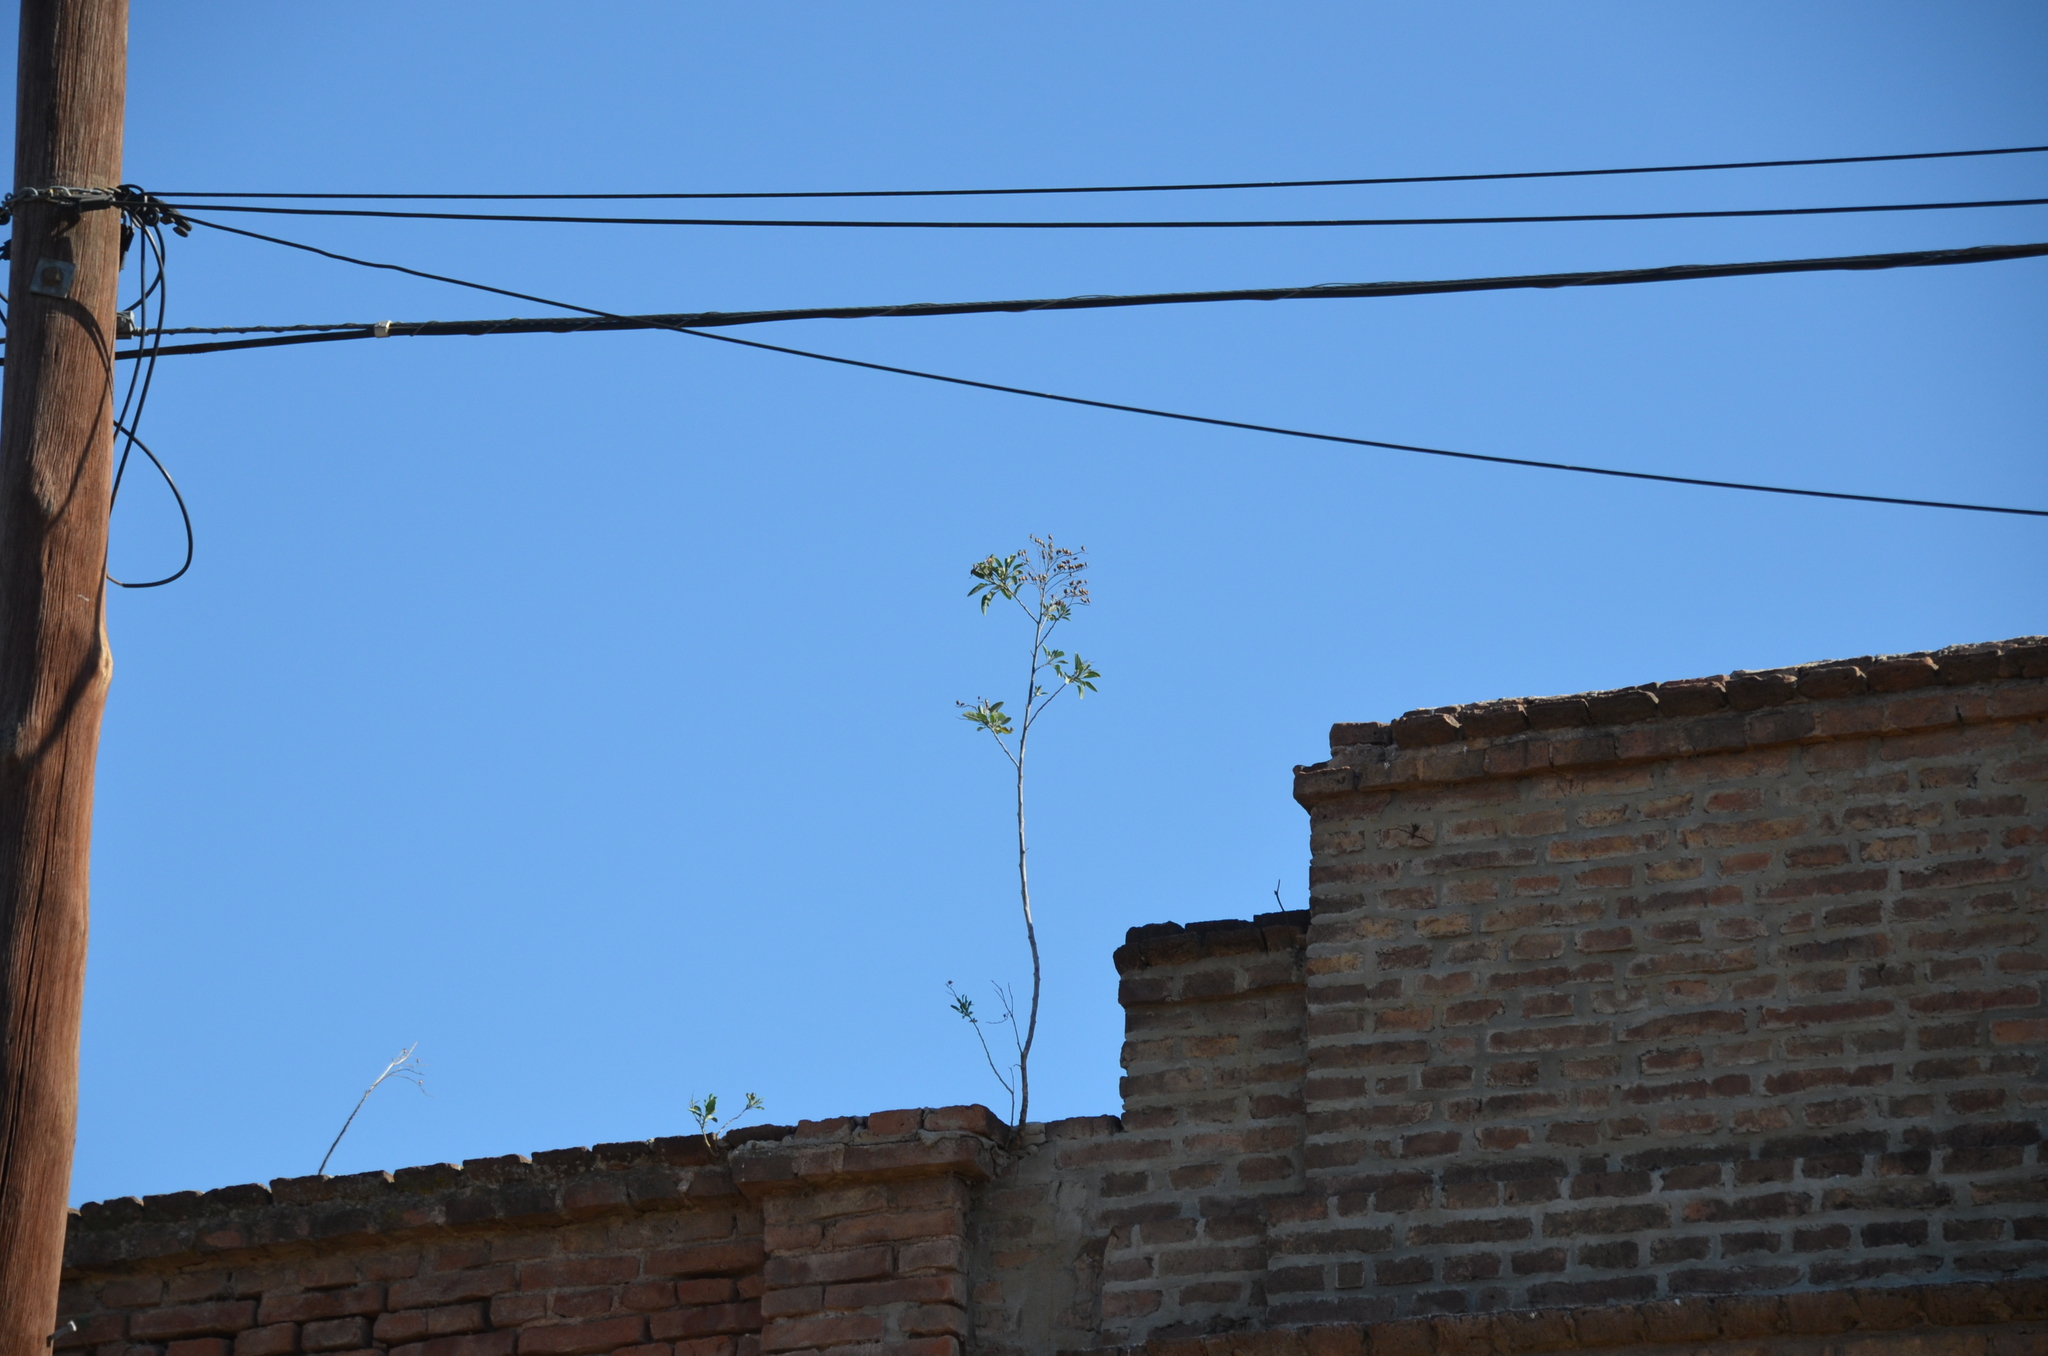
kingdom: Plantae
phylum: Tracheophyta
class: Magnoliopsida
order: Solanales
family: Solanaceae
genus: Nicotiana
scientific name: Nicotiana glauca
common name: Tree tobacco
